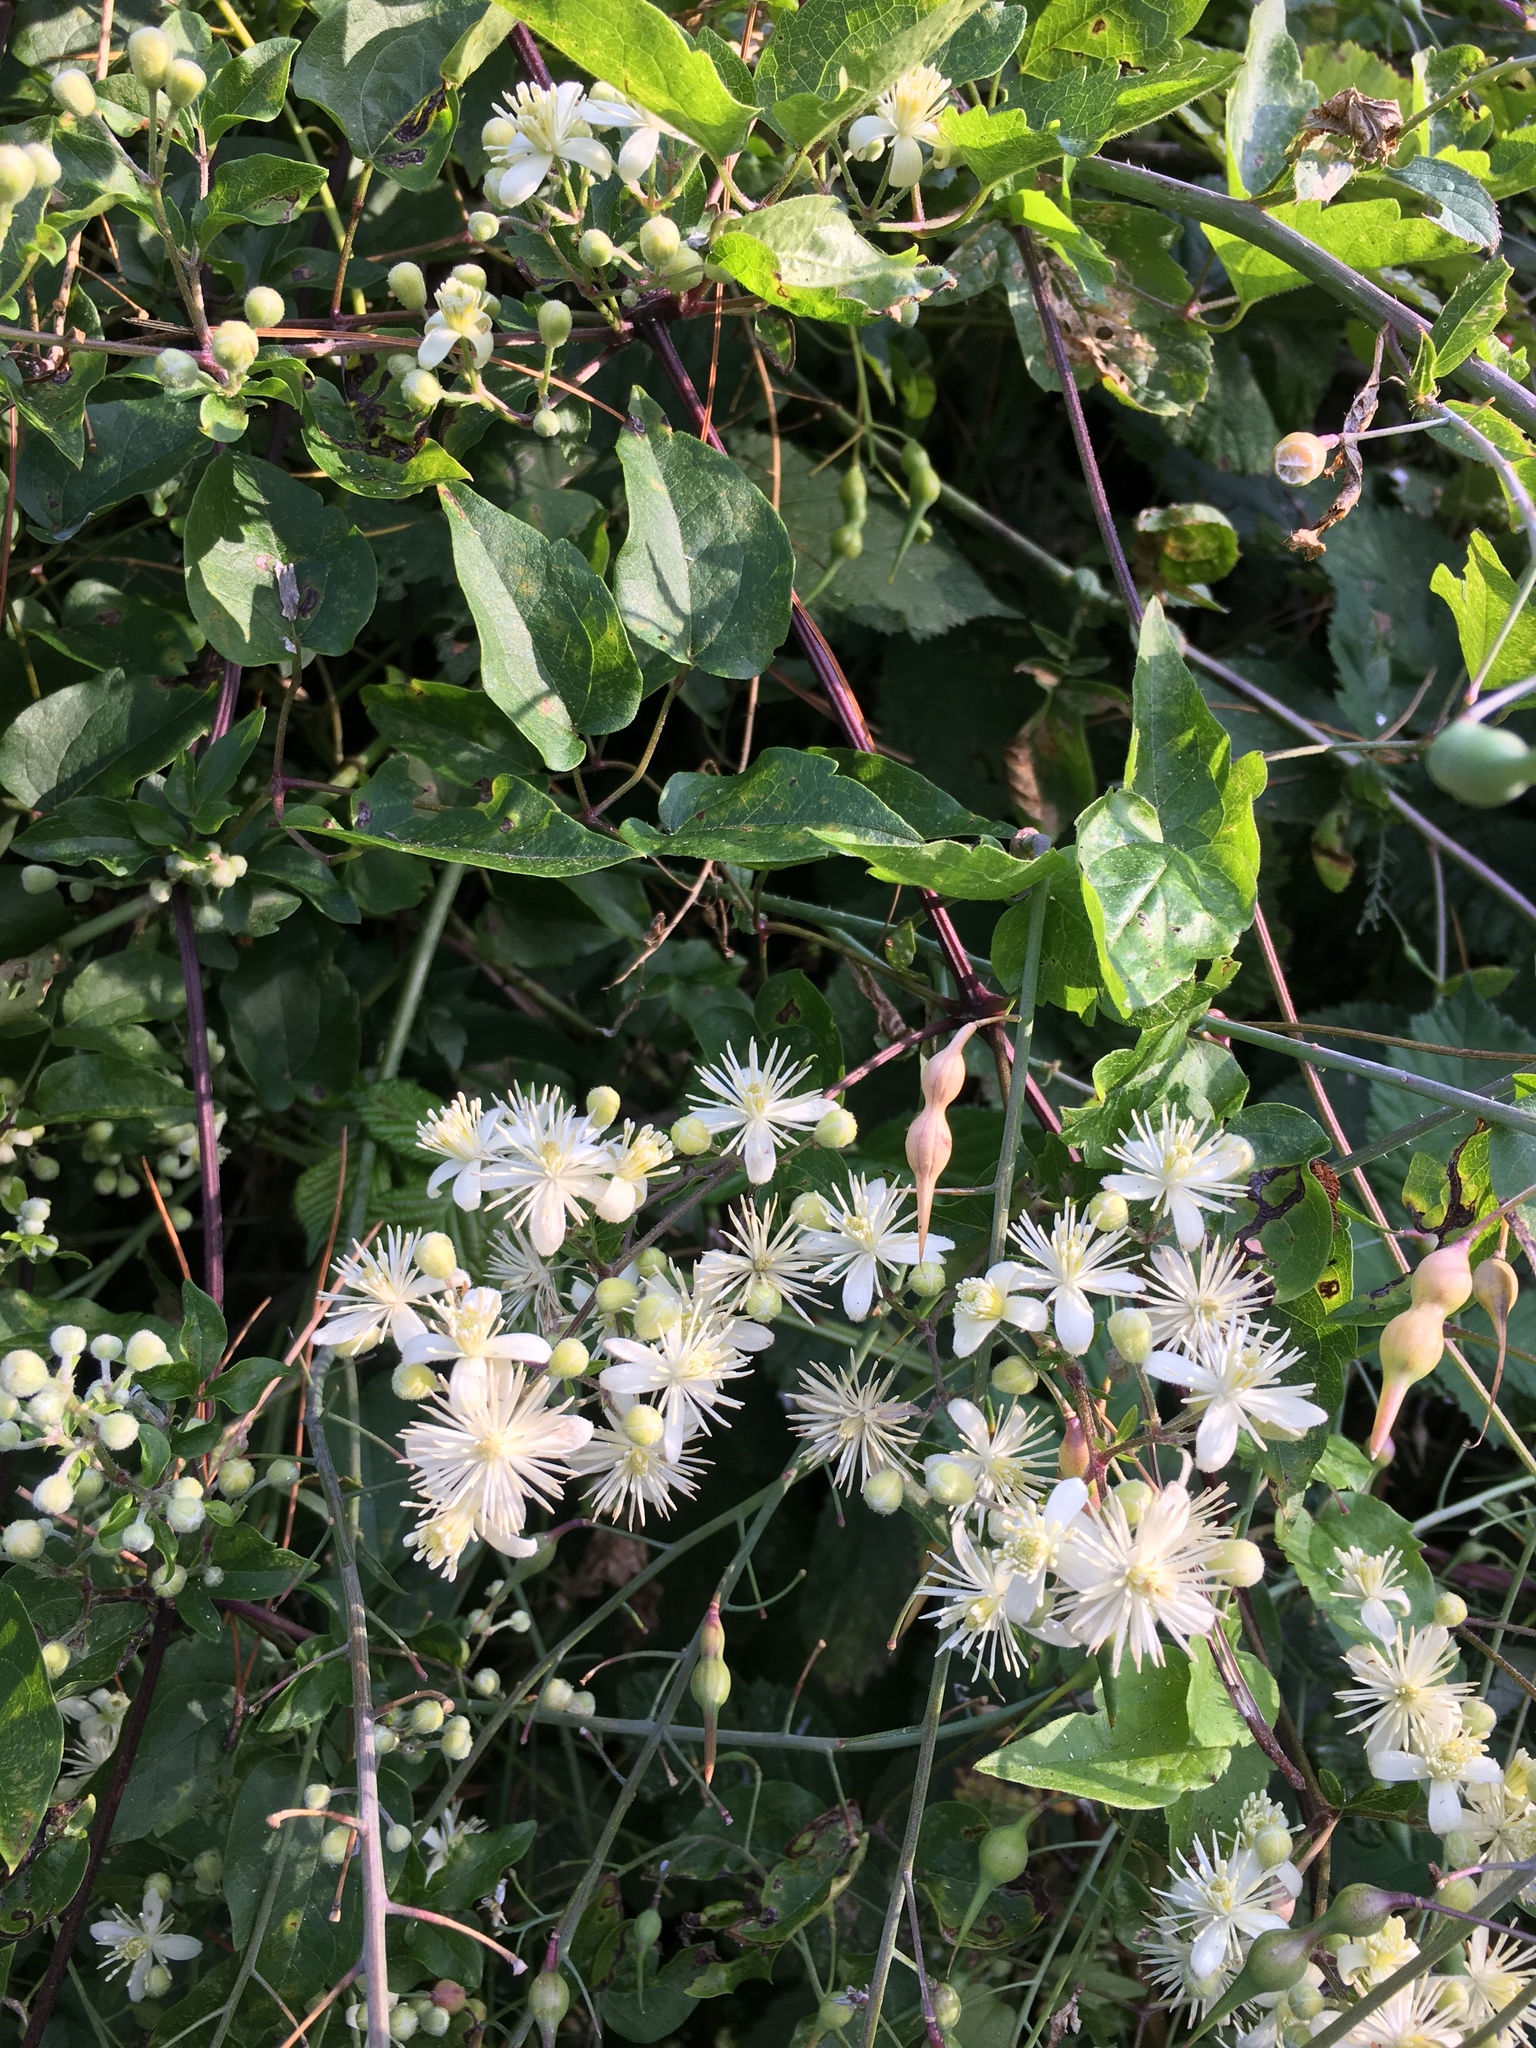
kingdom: Plantae
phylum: Tracheophyta
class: Magnoliopsida
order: Ranunculales
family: Ranunculaceae
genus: Clematis
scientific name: Clematis vitalba
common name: Evergreen clematis
